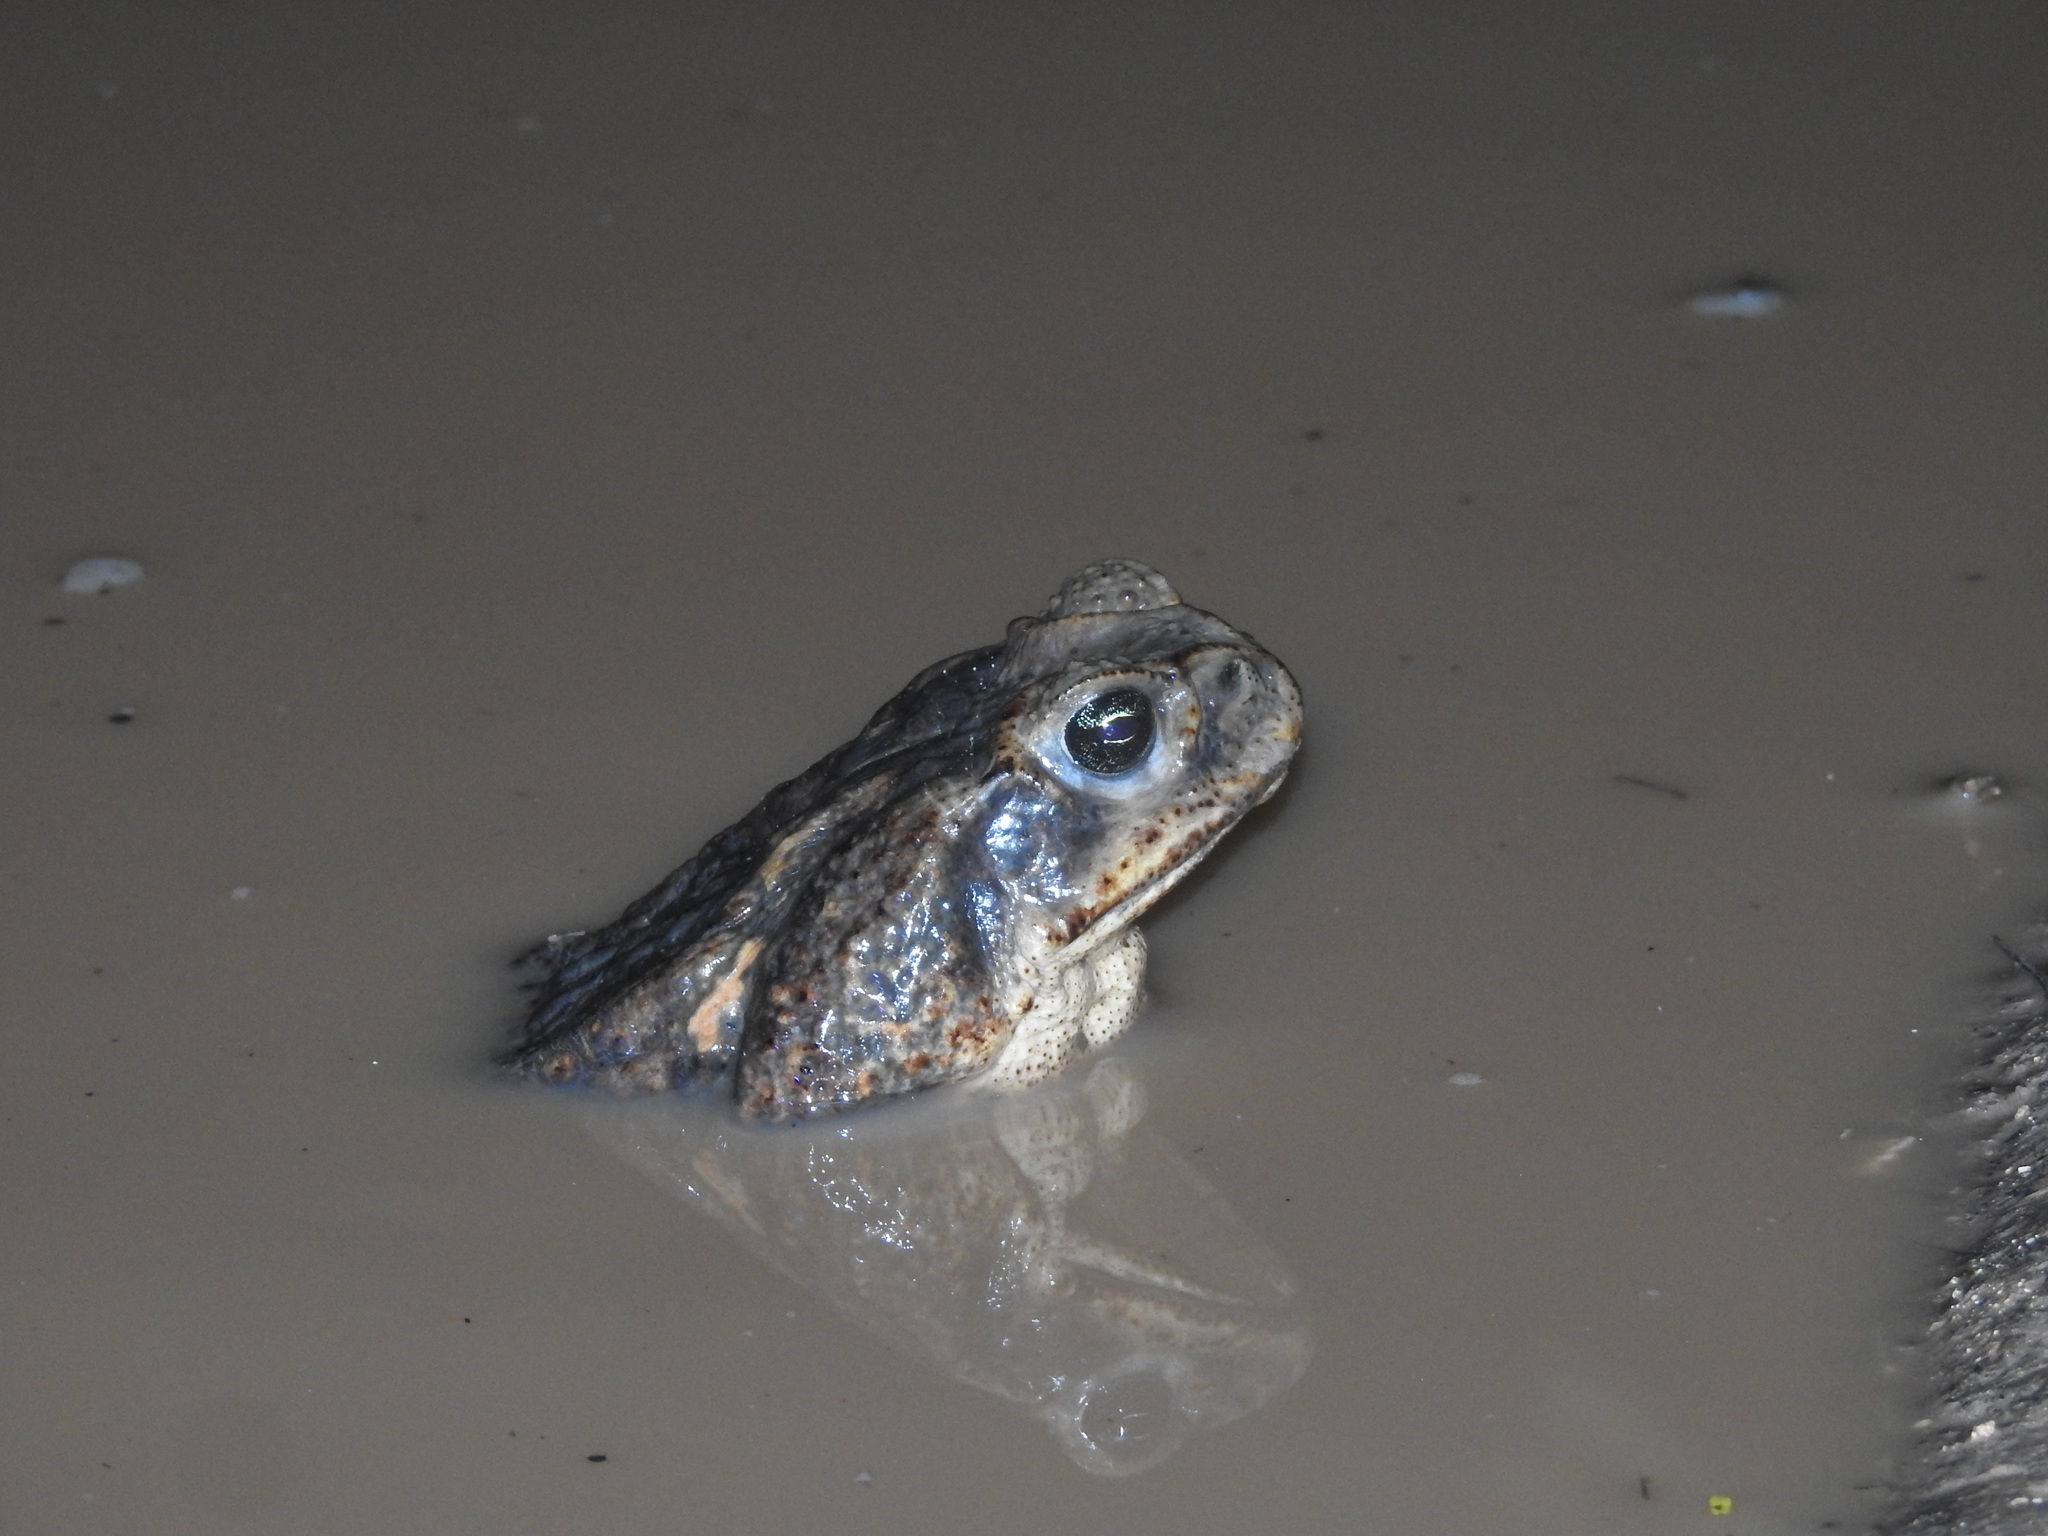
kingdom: Animalia
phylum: Chordata
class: Amphibia
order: Anura
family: Bufonidae
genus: Rhinella
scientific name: Rhinella horribilis
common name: Mesoamerican cane toad
